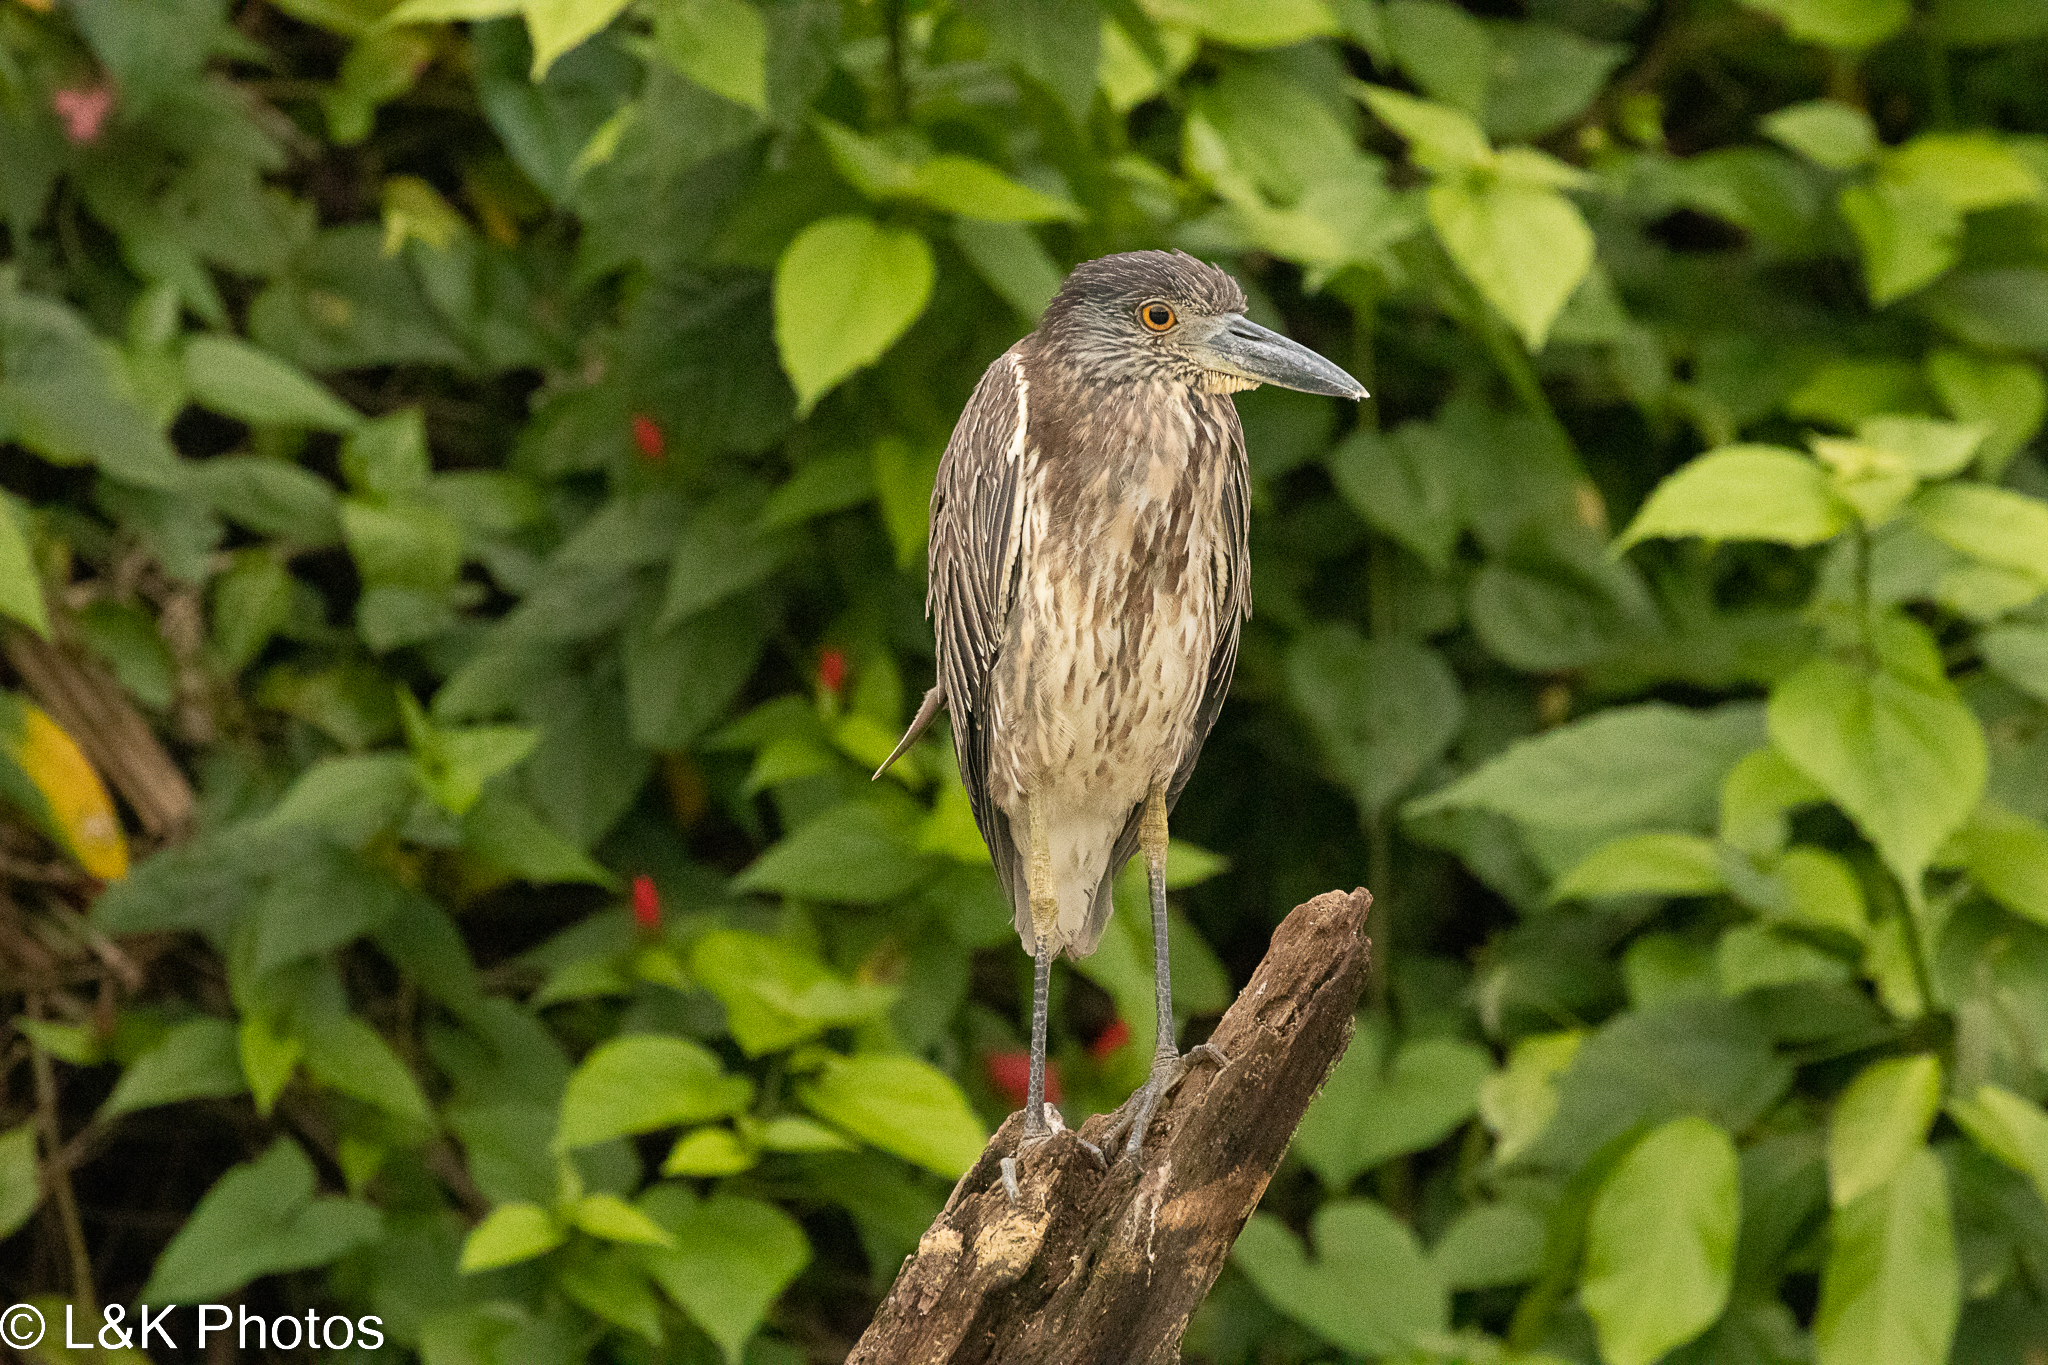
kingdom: Animalia
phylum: Chordata
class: Aves
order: Pelecaniformes
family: Ardeidae
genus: Nyctanassa
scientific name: Nyctanassa violacea
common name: Yellow-crowned night heron
